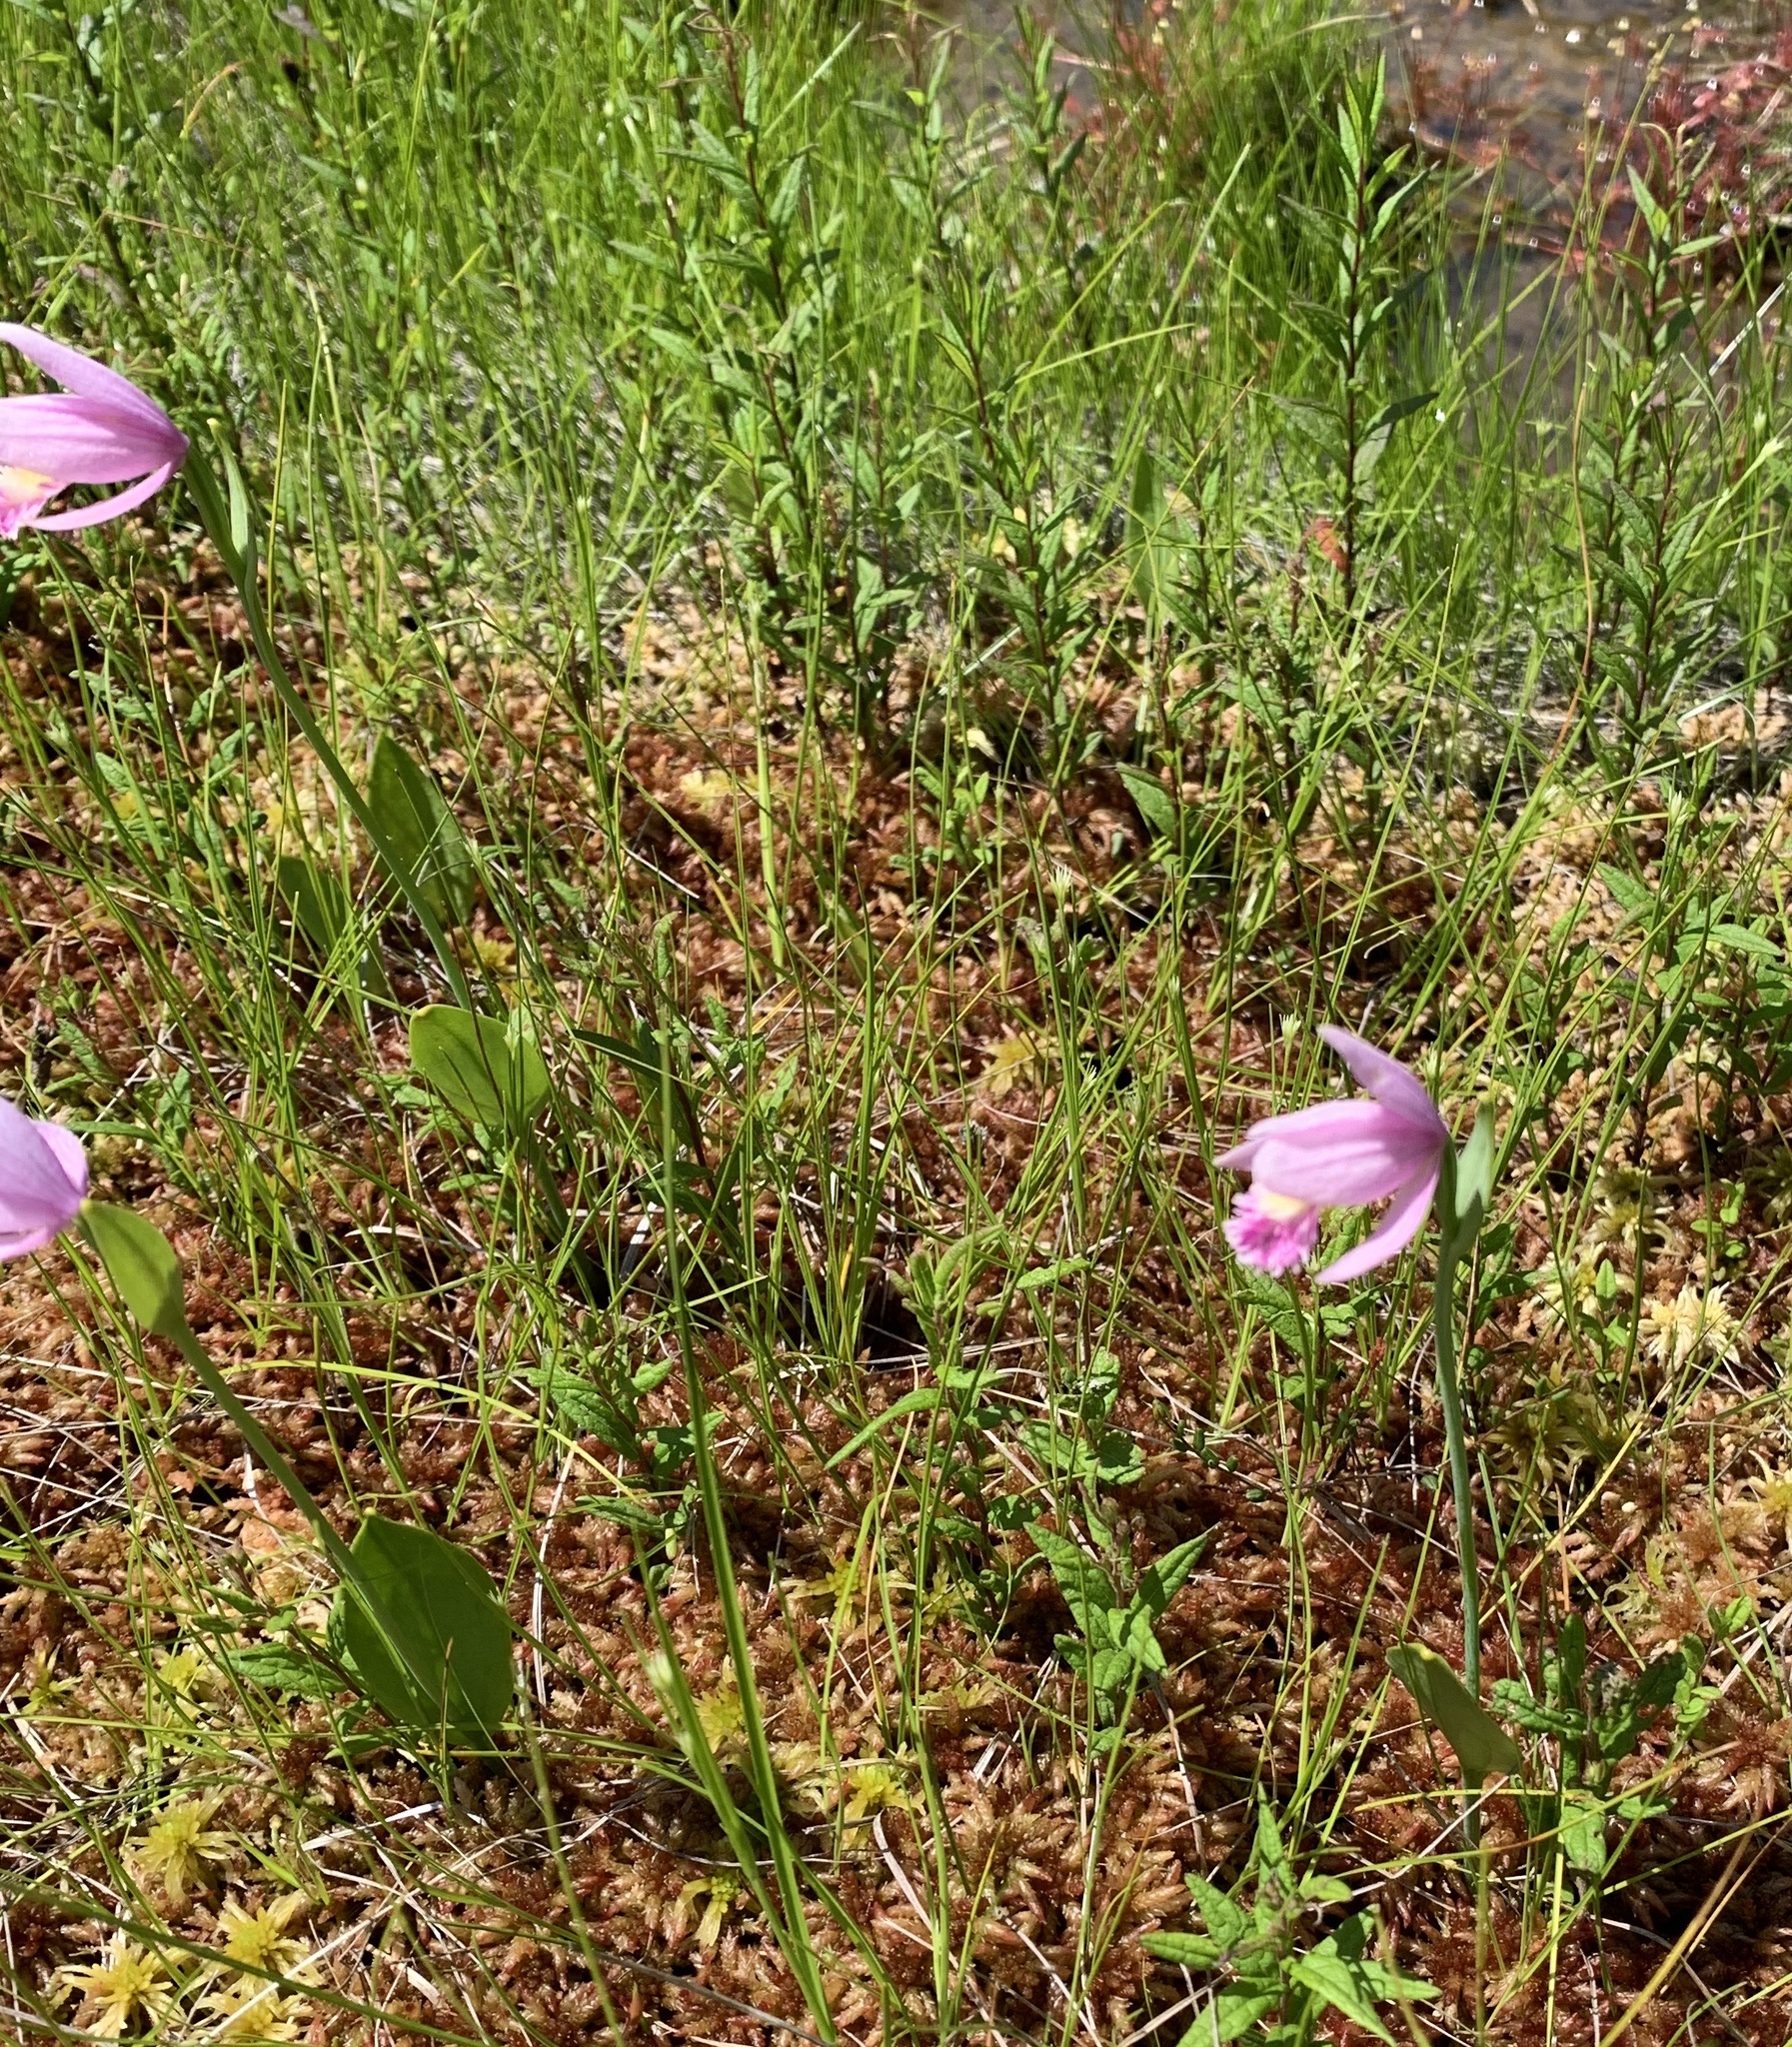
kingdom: Plantae
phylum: Tracheophyta
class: Liliopsida
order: Asparagales
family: Orchidaceae
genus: Pogonia
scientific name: Pogonia ophioglossoides
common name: Rose pogonia
